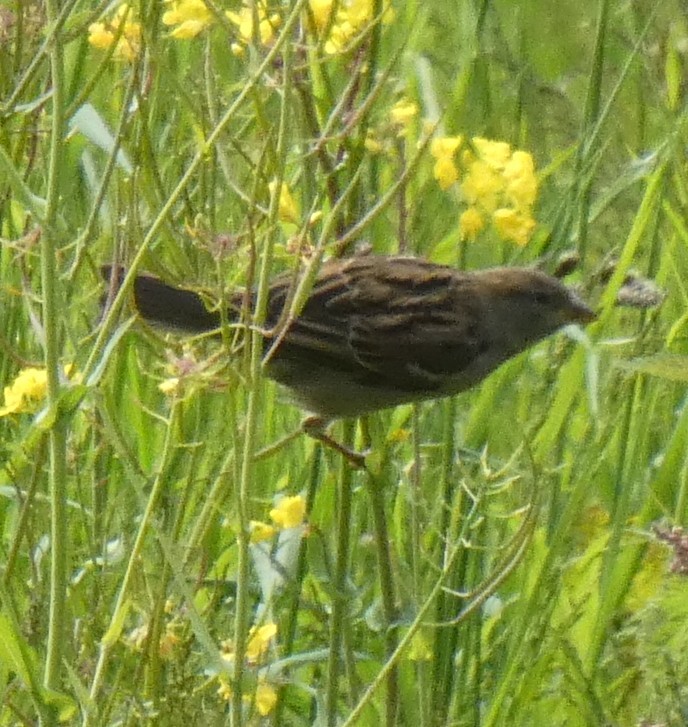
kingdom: Animalia
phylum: Chordata
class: Aves
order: Passeriformes
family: Passeridae
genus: Passer
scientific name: Passer domesticus
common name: House sparrow
